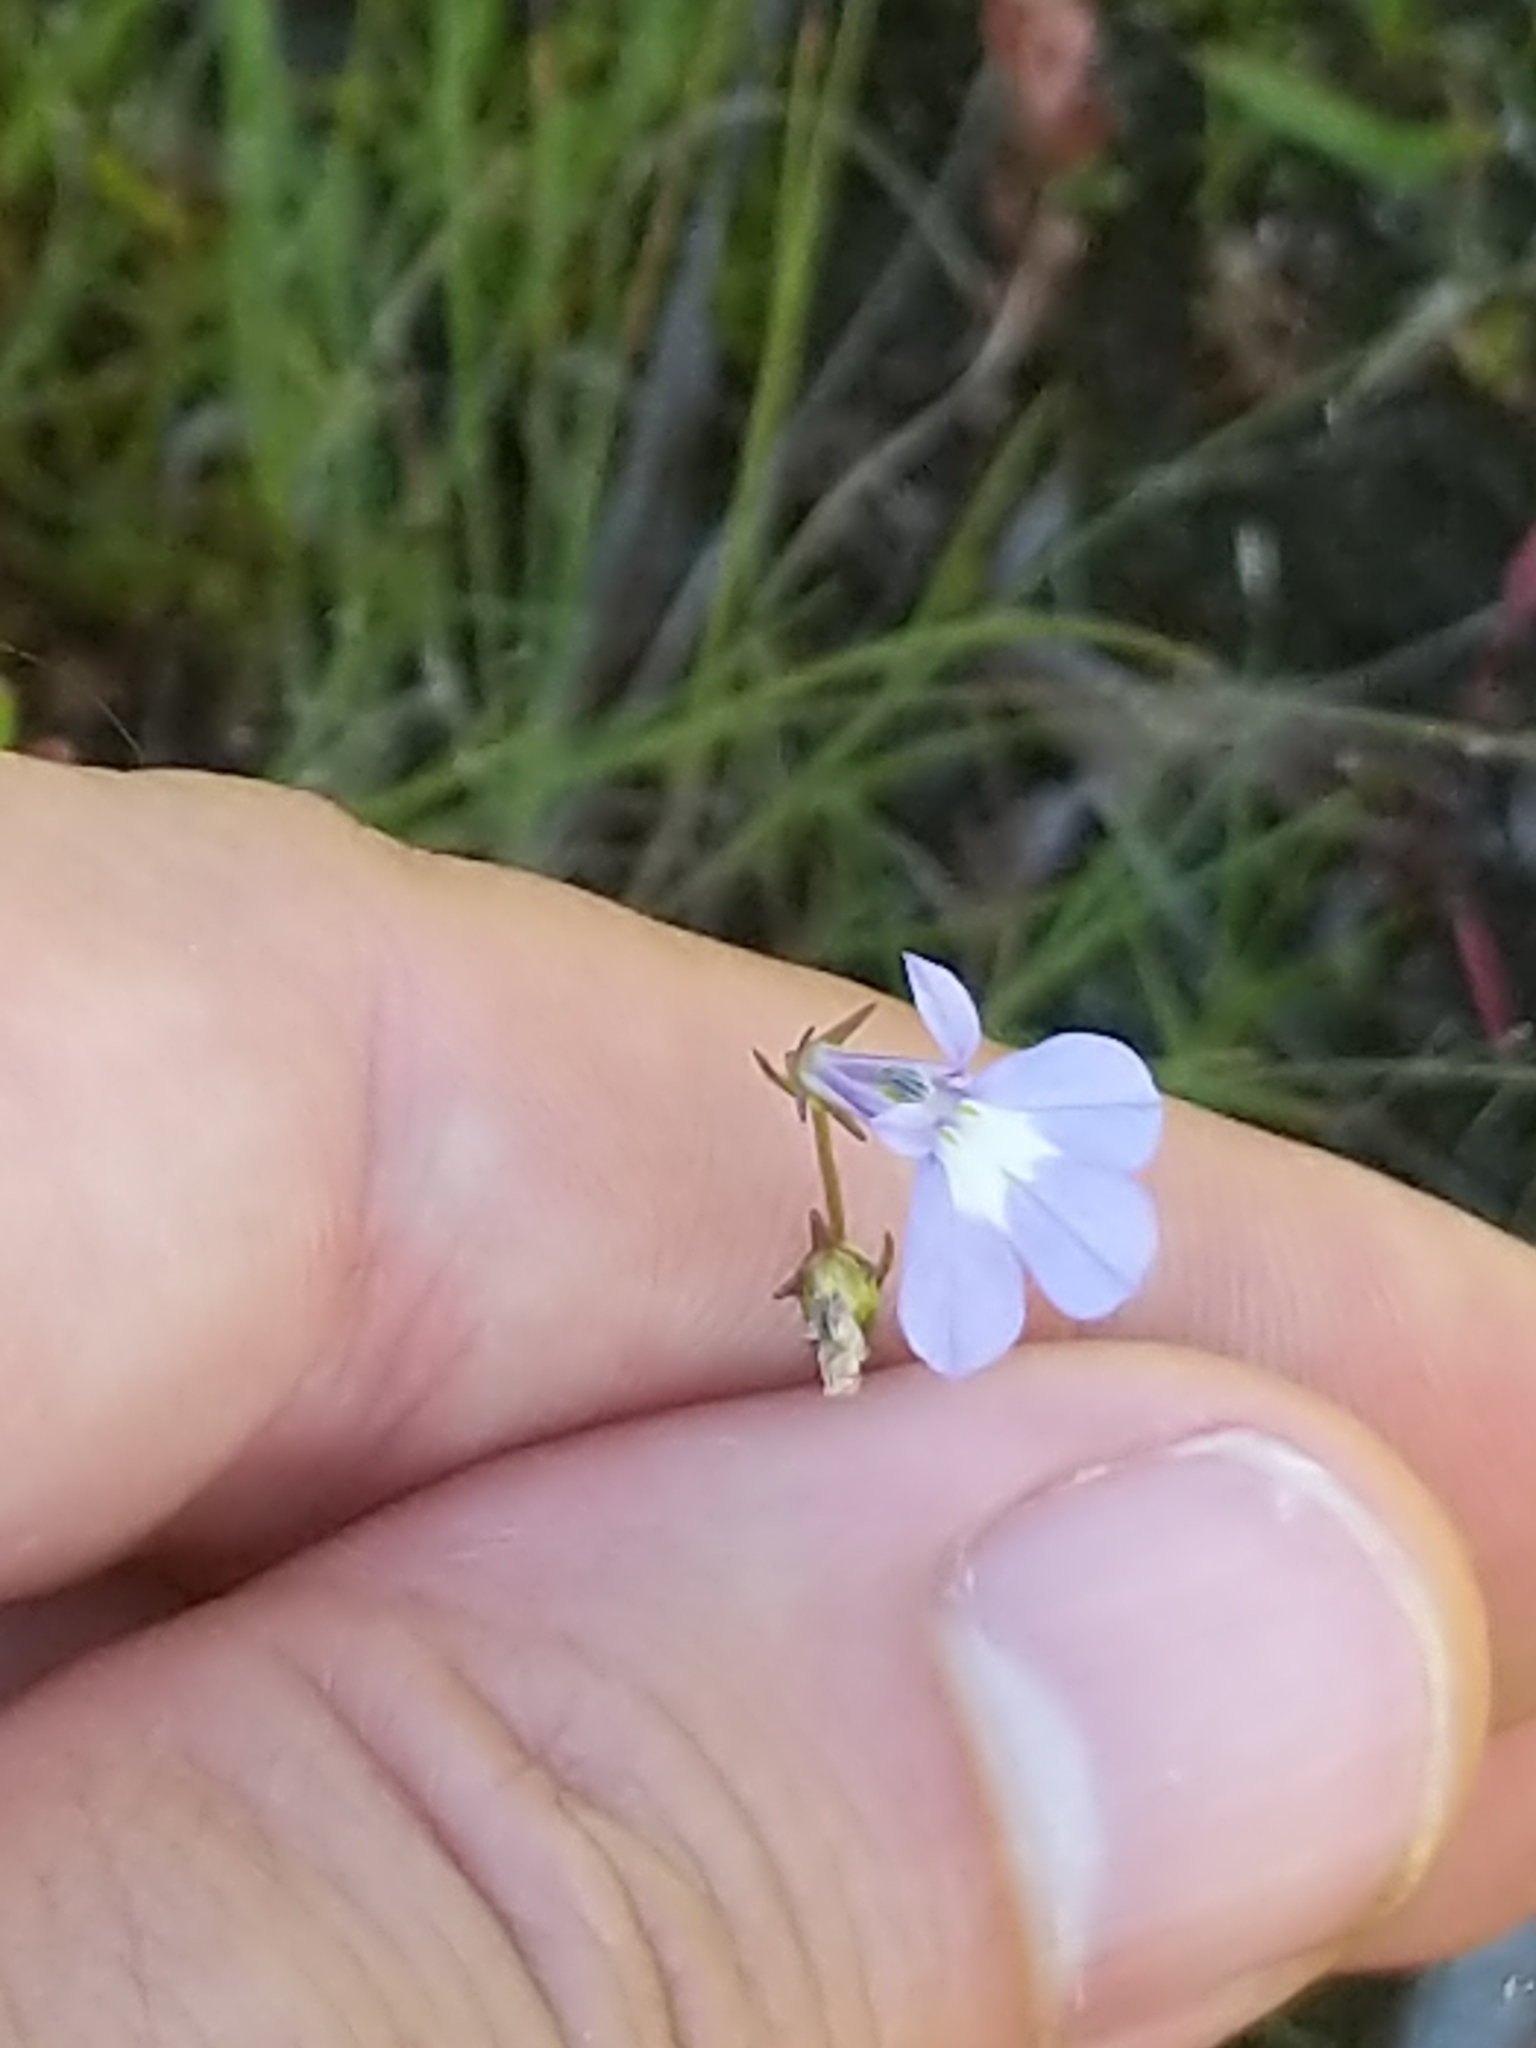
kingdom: Plantae
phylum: Tracheophyta
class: Magnoliopsida
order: Asterales
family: Campanulaceae
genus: Lobelia
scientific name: Lobelia kalmii
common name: Kalm's lobelia
